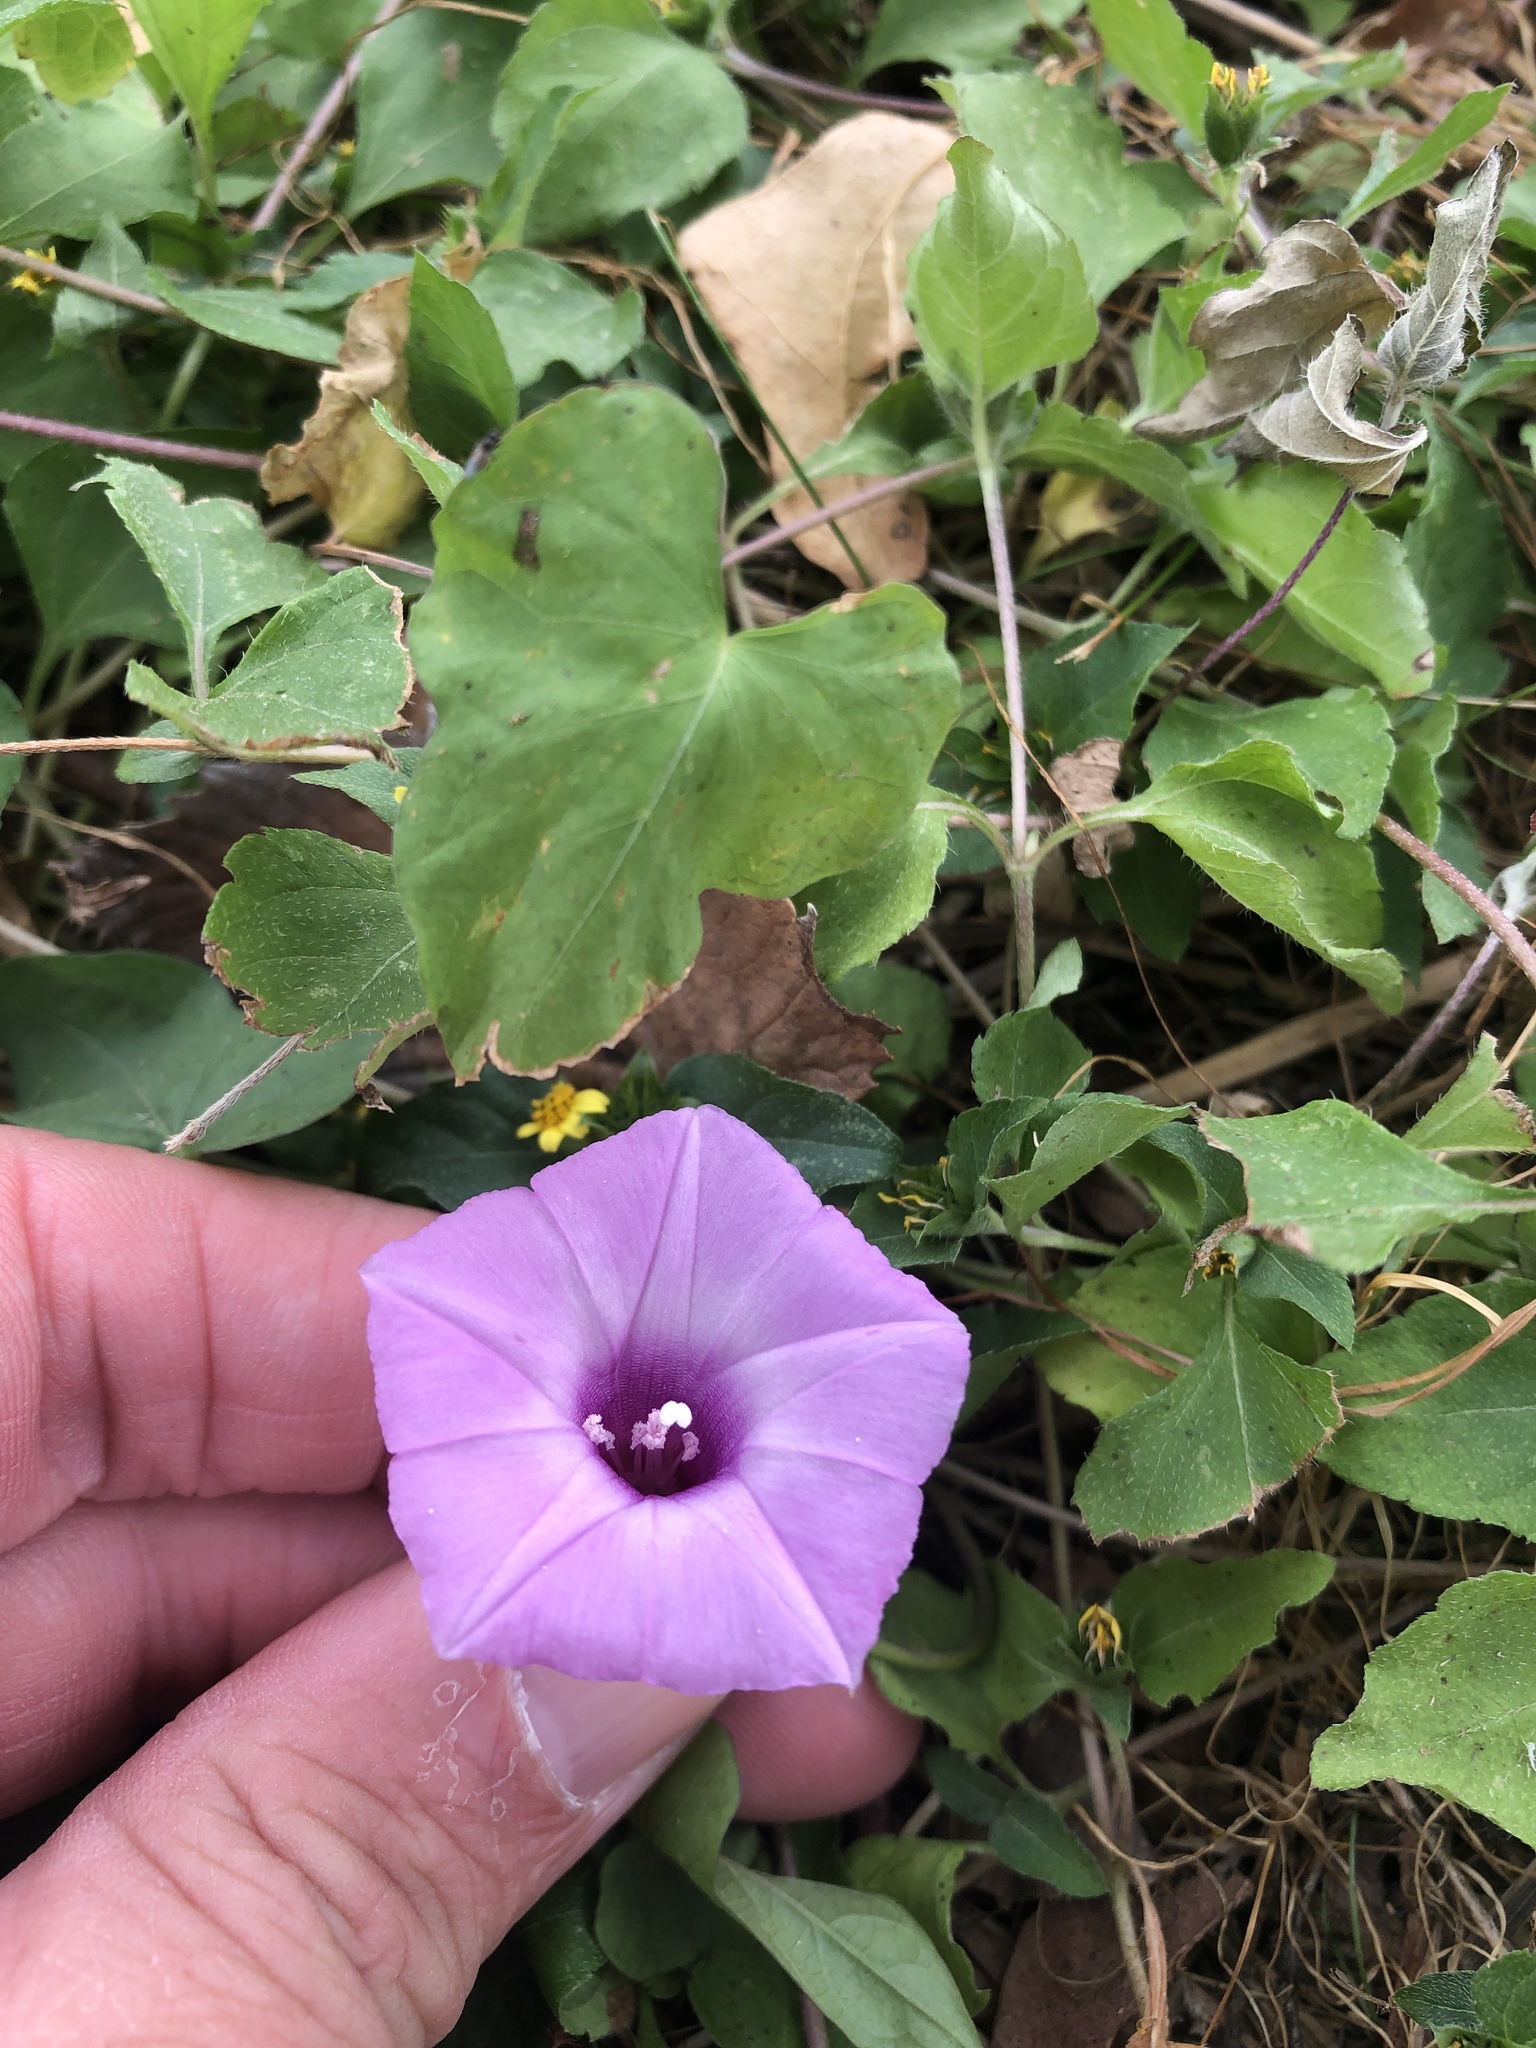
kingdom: Plantae
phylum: Tracheophyta
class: Magnoliopsida
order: Solanales
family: Convolvulaceae
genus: Ipomoea
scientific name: Ipomoea cordatotriloba
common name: Cotton morning glory
